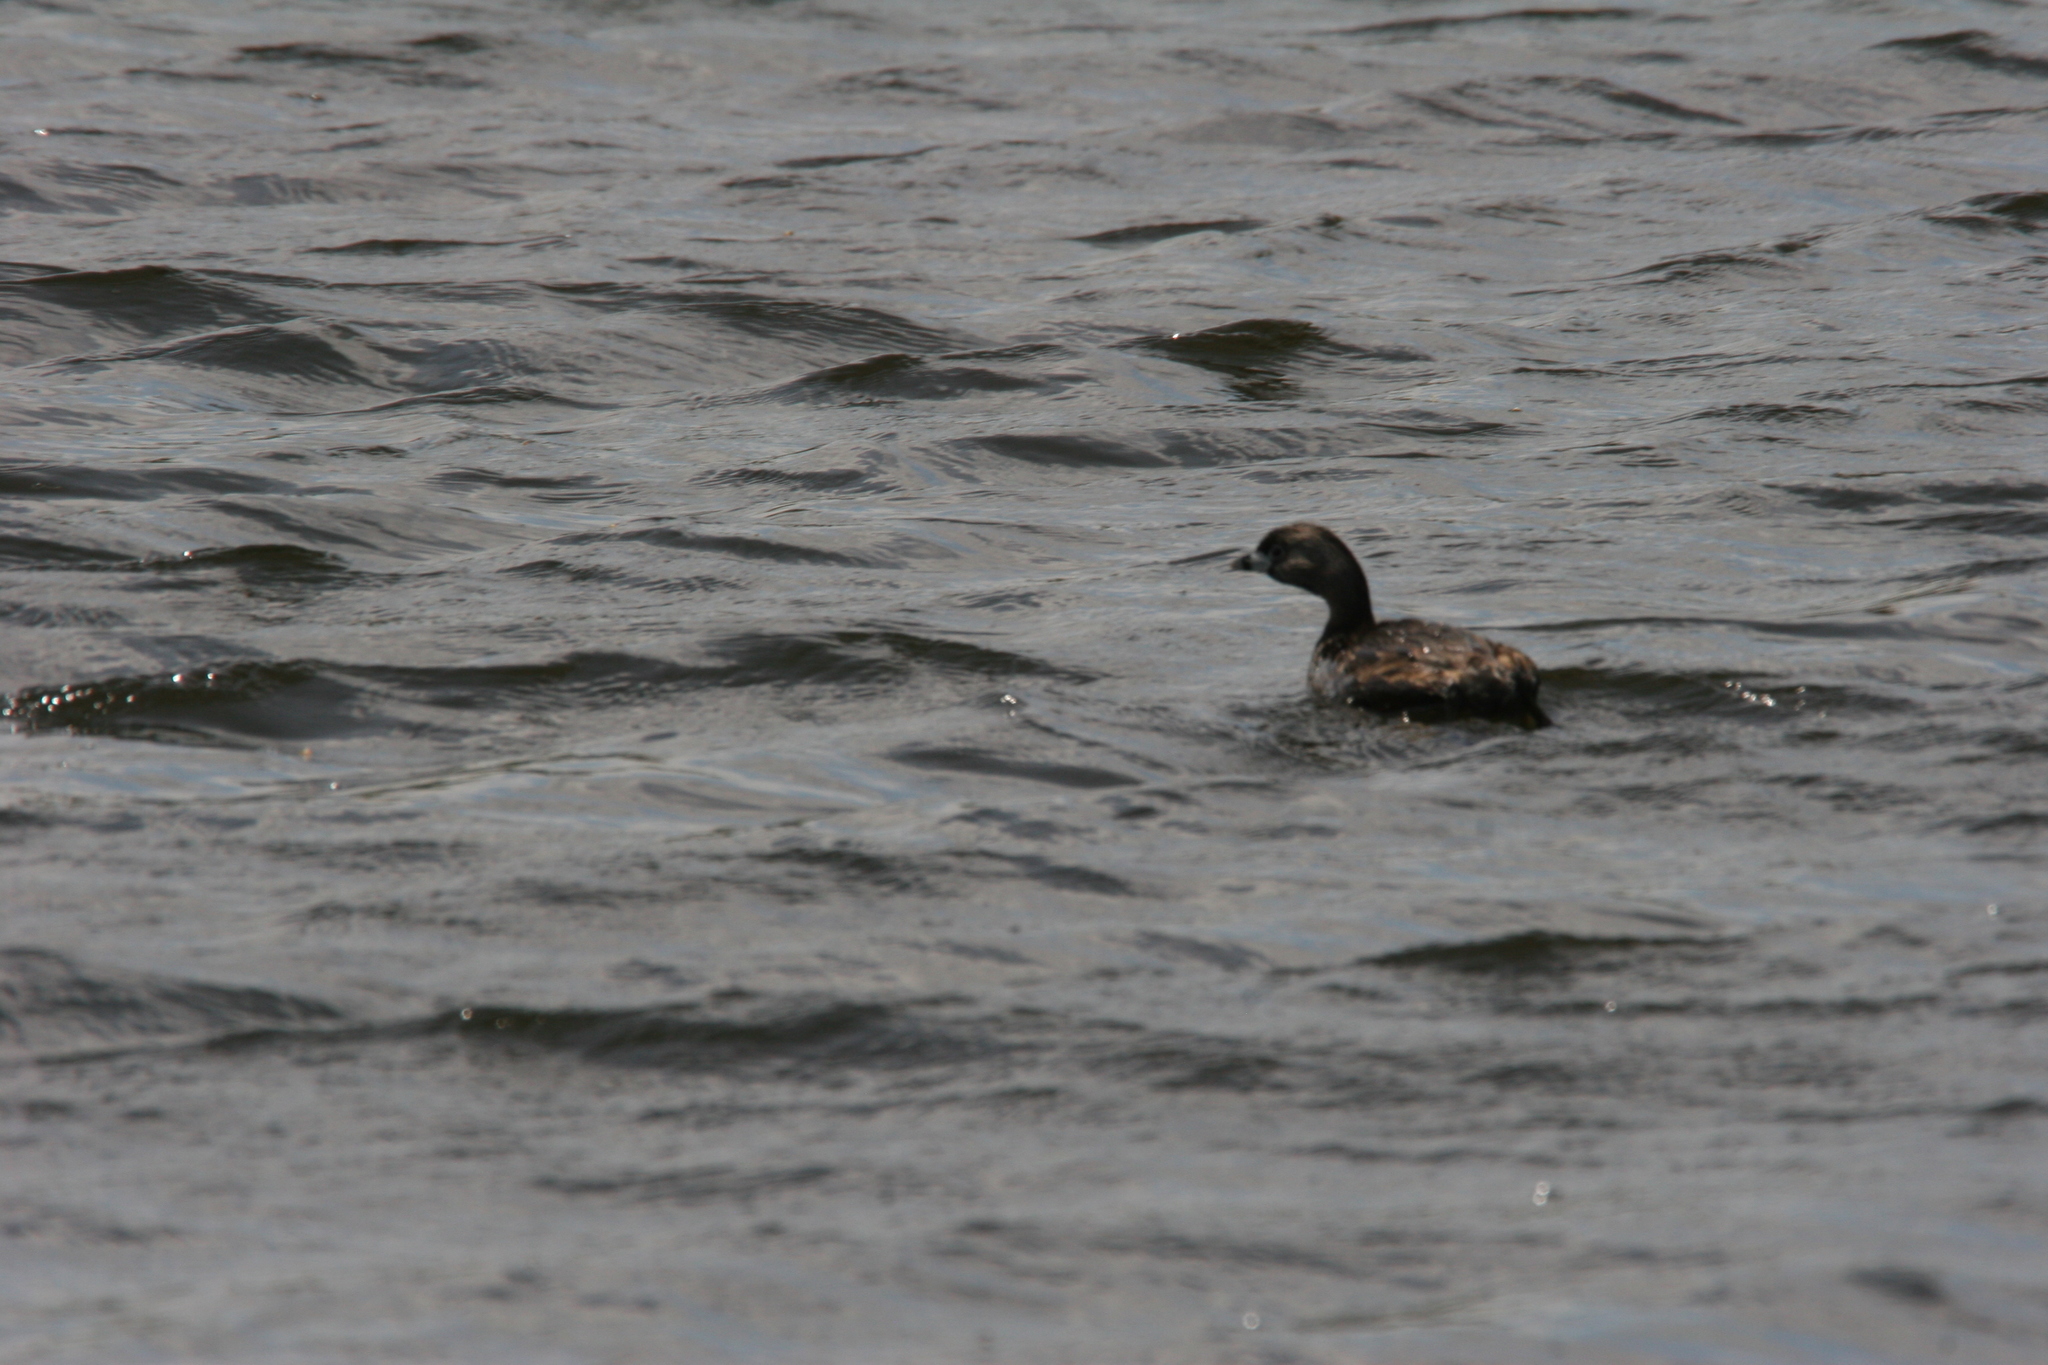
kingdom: Animalia
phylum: Chordata
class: Aves
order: Podicipediformes
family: Podicipedidae
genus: Podilymbus
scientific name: Podilymbus podiceps
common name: Pied-billed grebe
